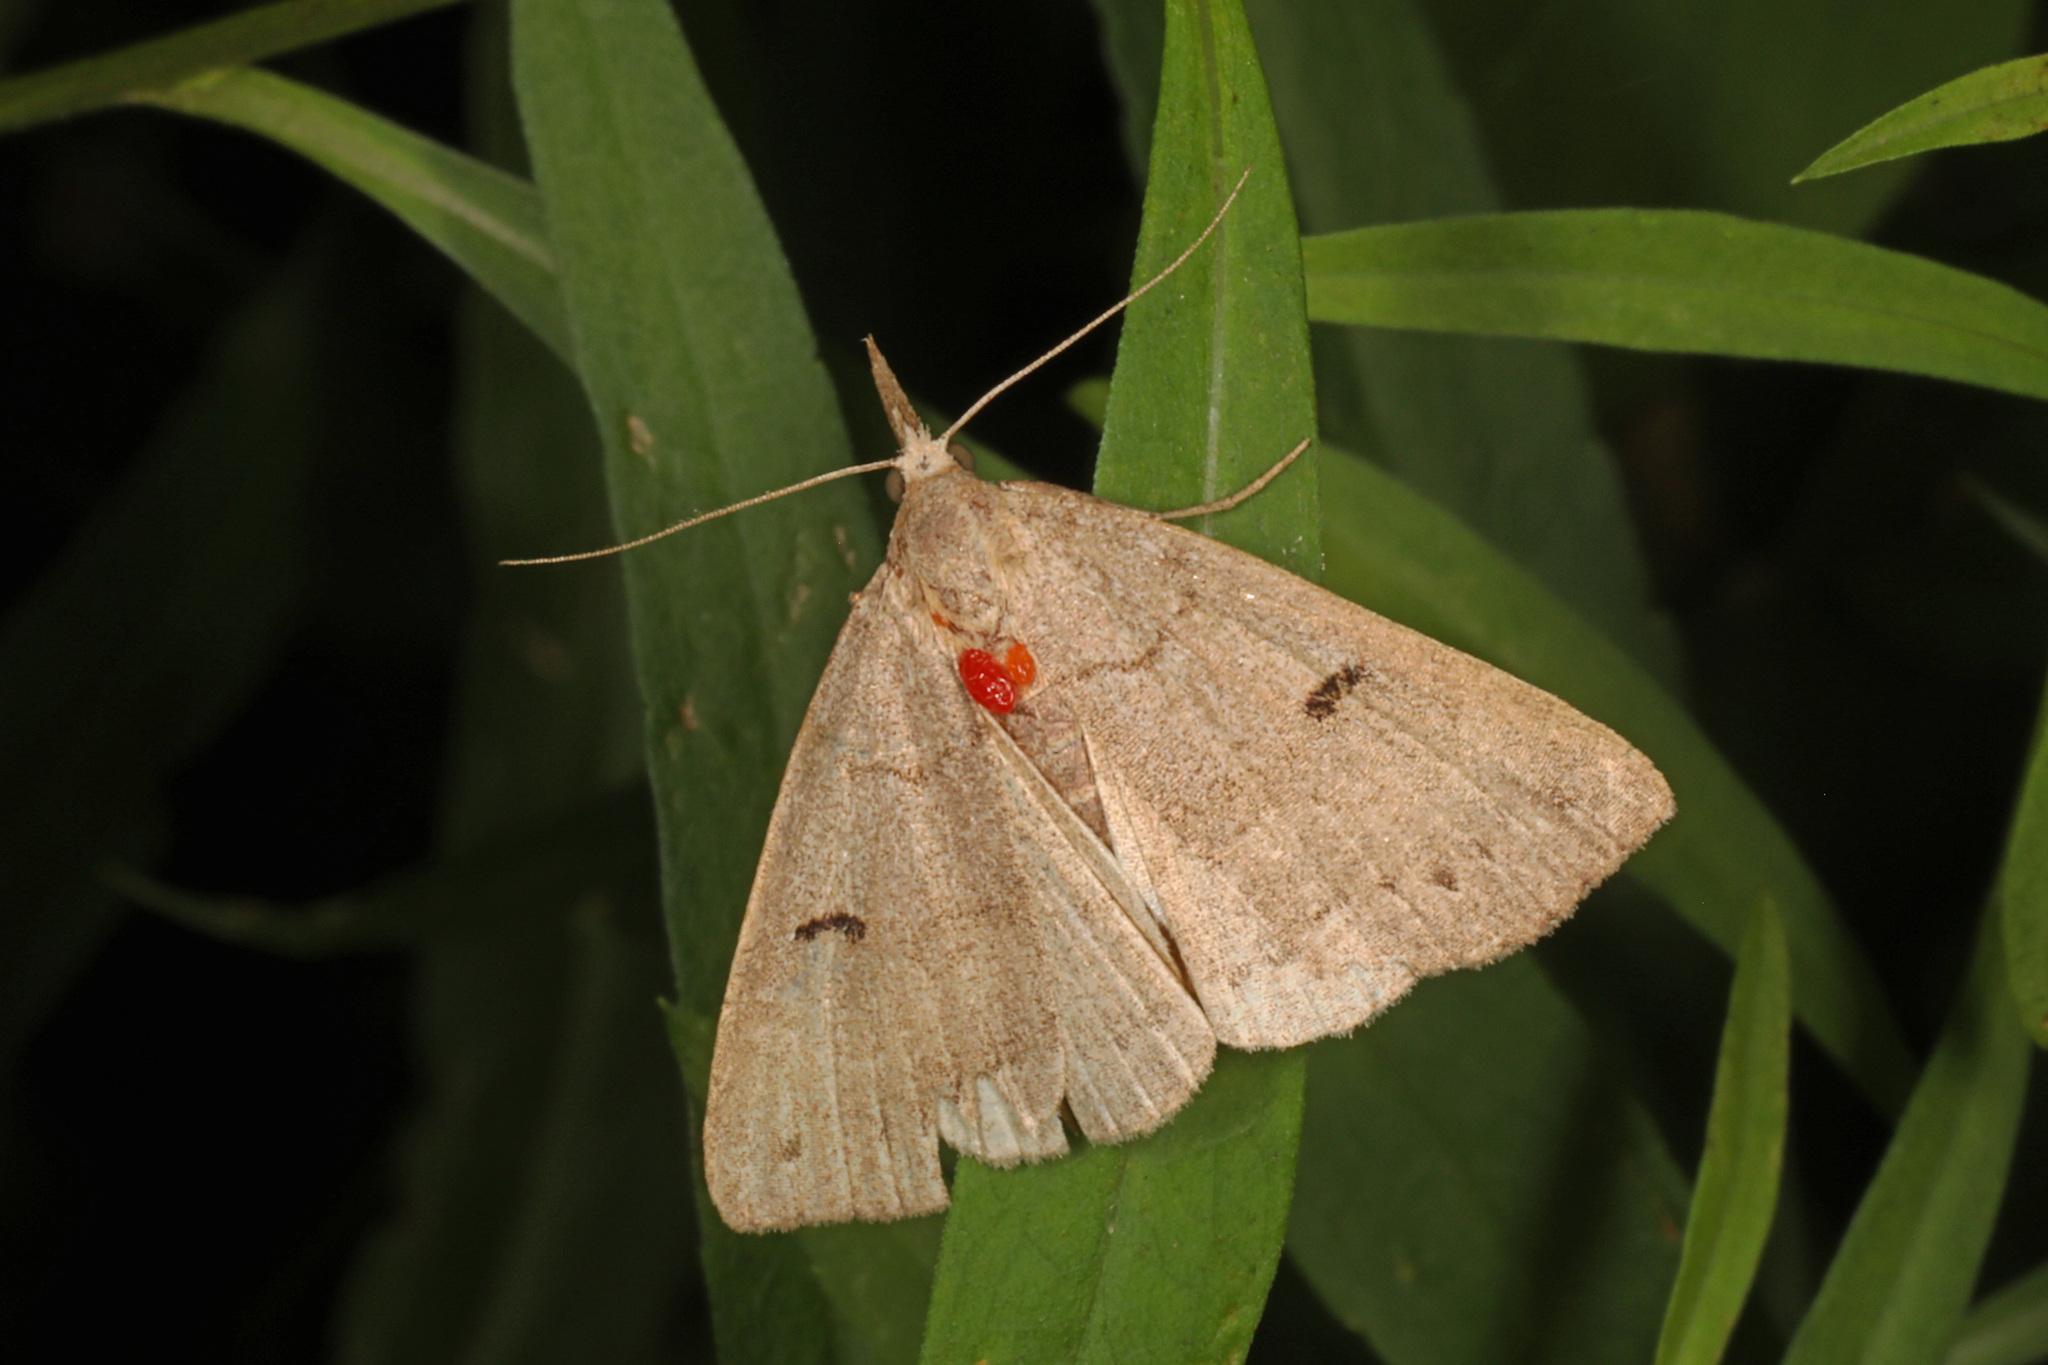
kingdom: Animalia
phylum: Arthropoda
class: Insecta
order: Lepidoptera
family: Erebidae
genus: Macrochilo
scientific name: Macrochilo morbidalis
